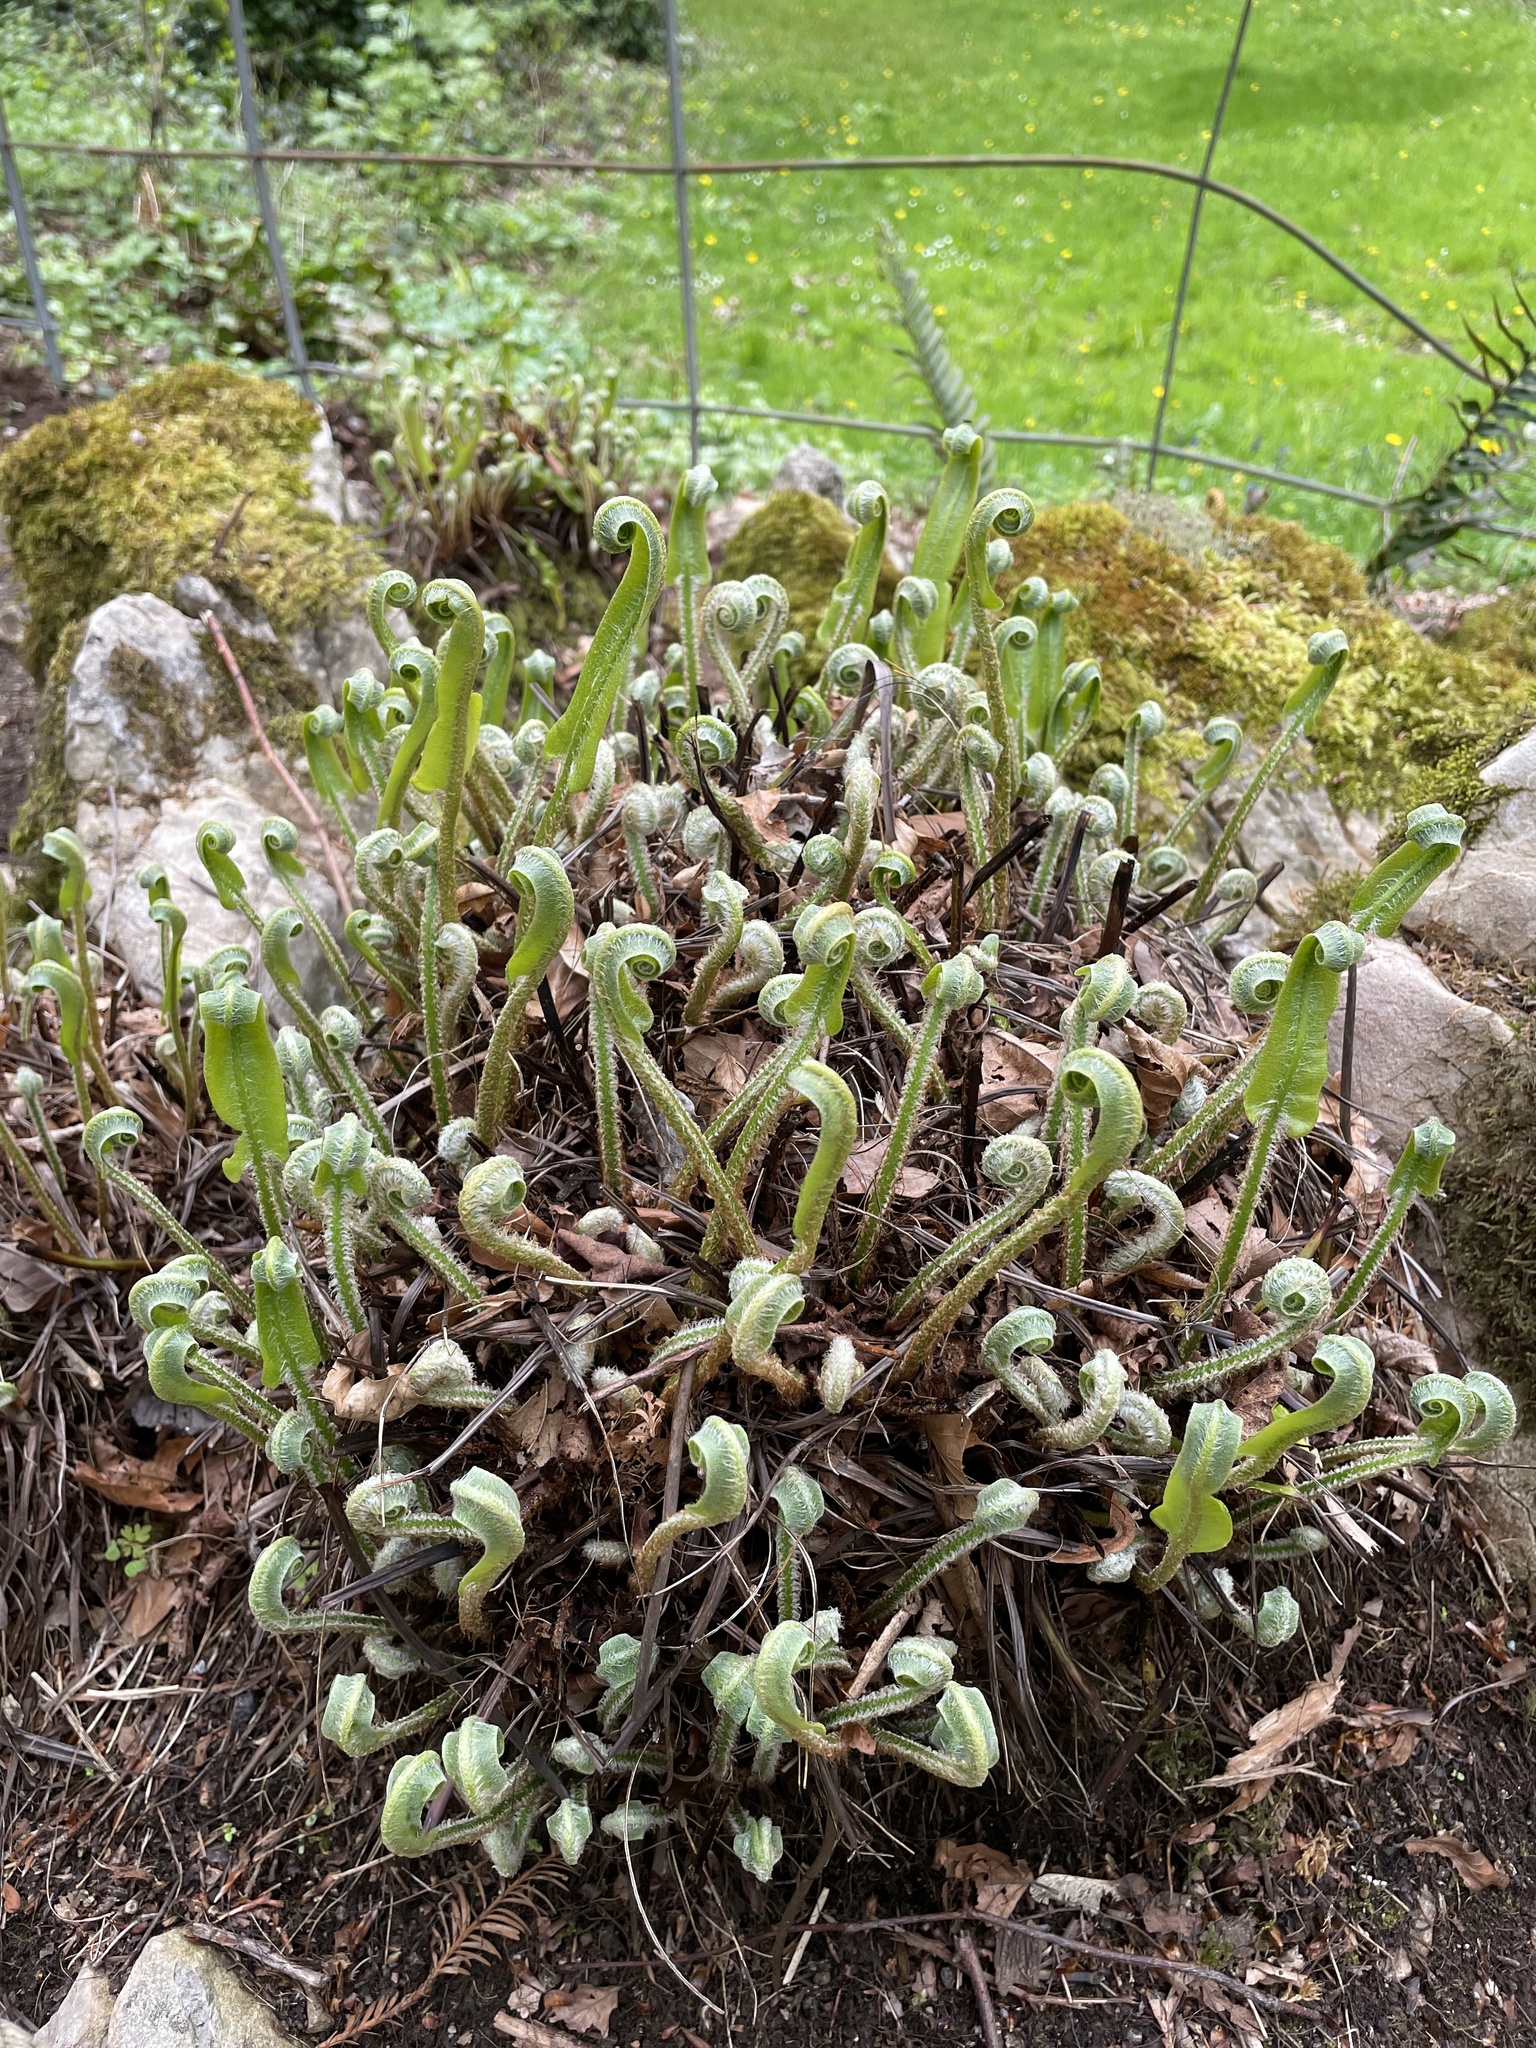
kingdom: Plantae
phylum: Tracheophyta
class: Polypodiopsida
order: Polypodiales
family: Aspleniaceae
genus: Asplenium
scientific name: Asplenium scolopendrium
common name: Hart's-tongue fern
